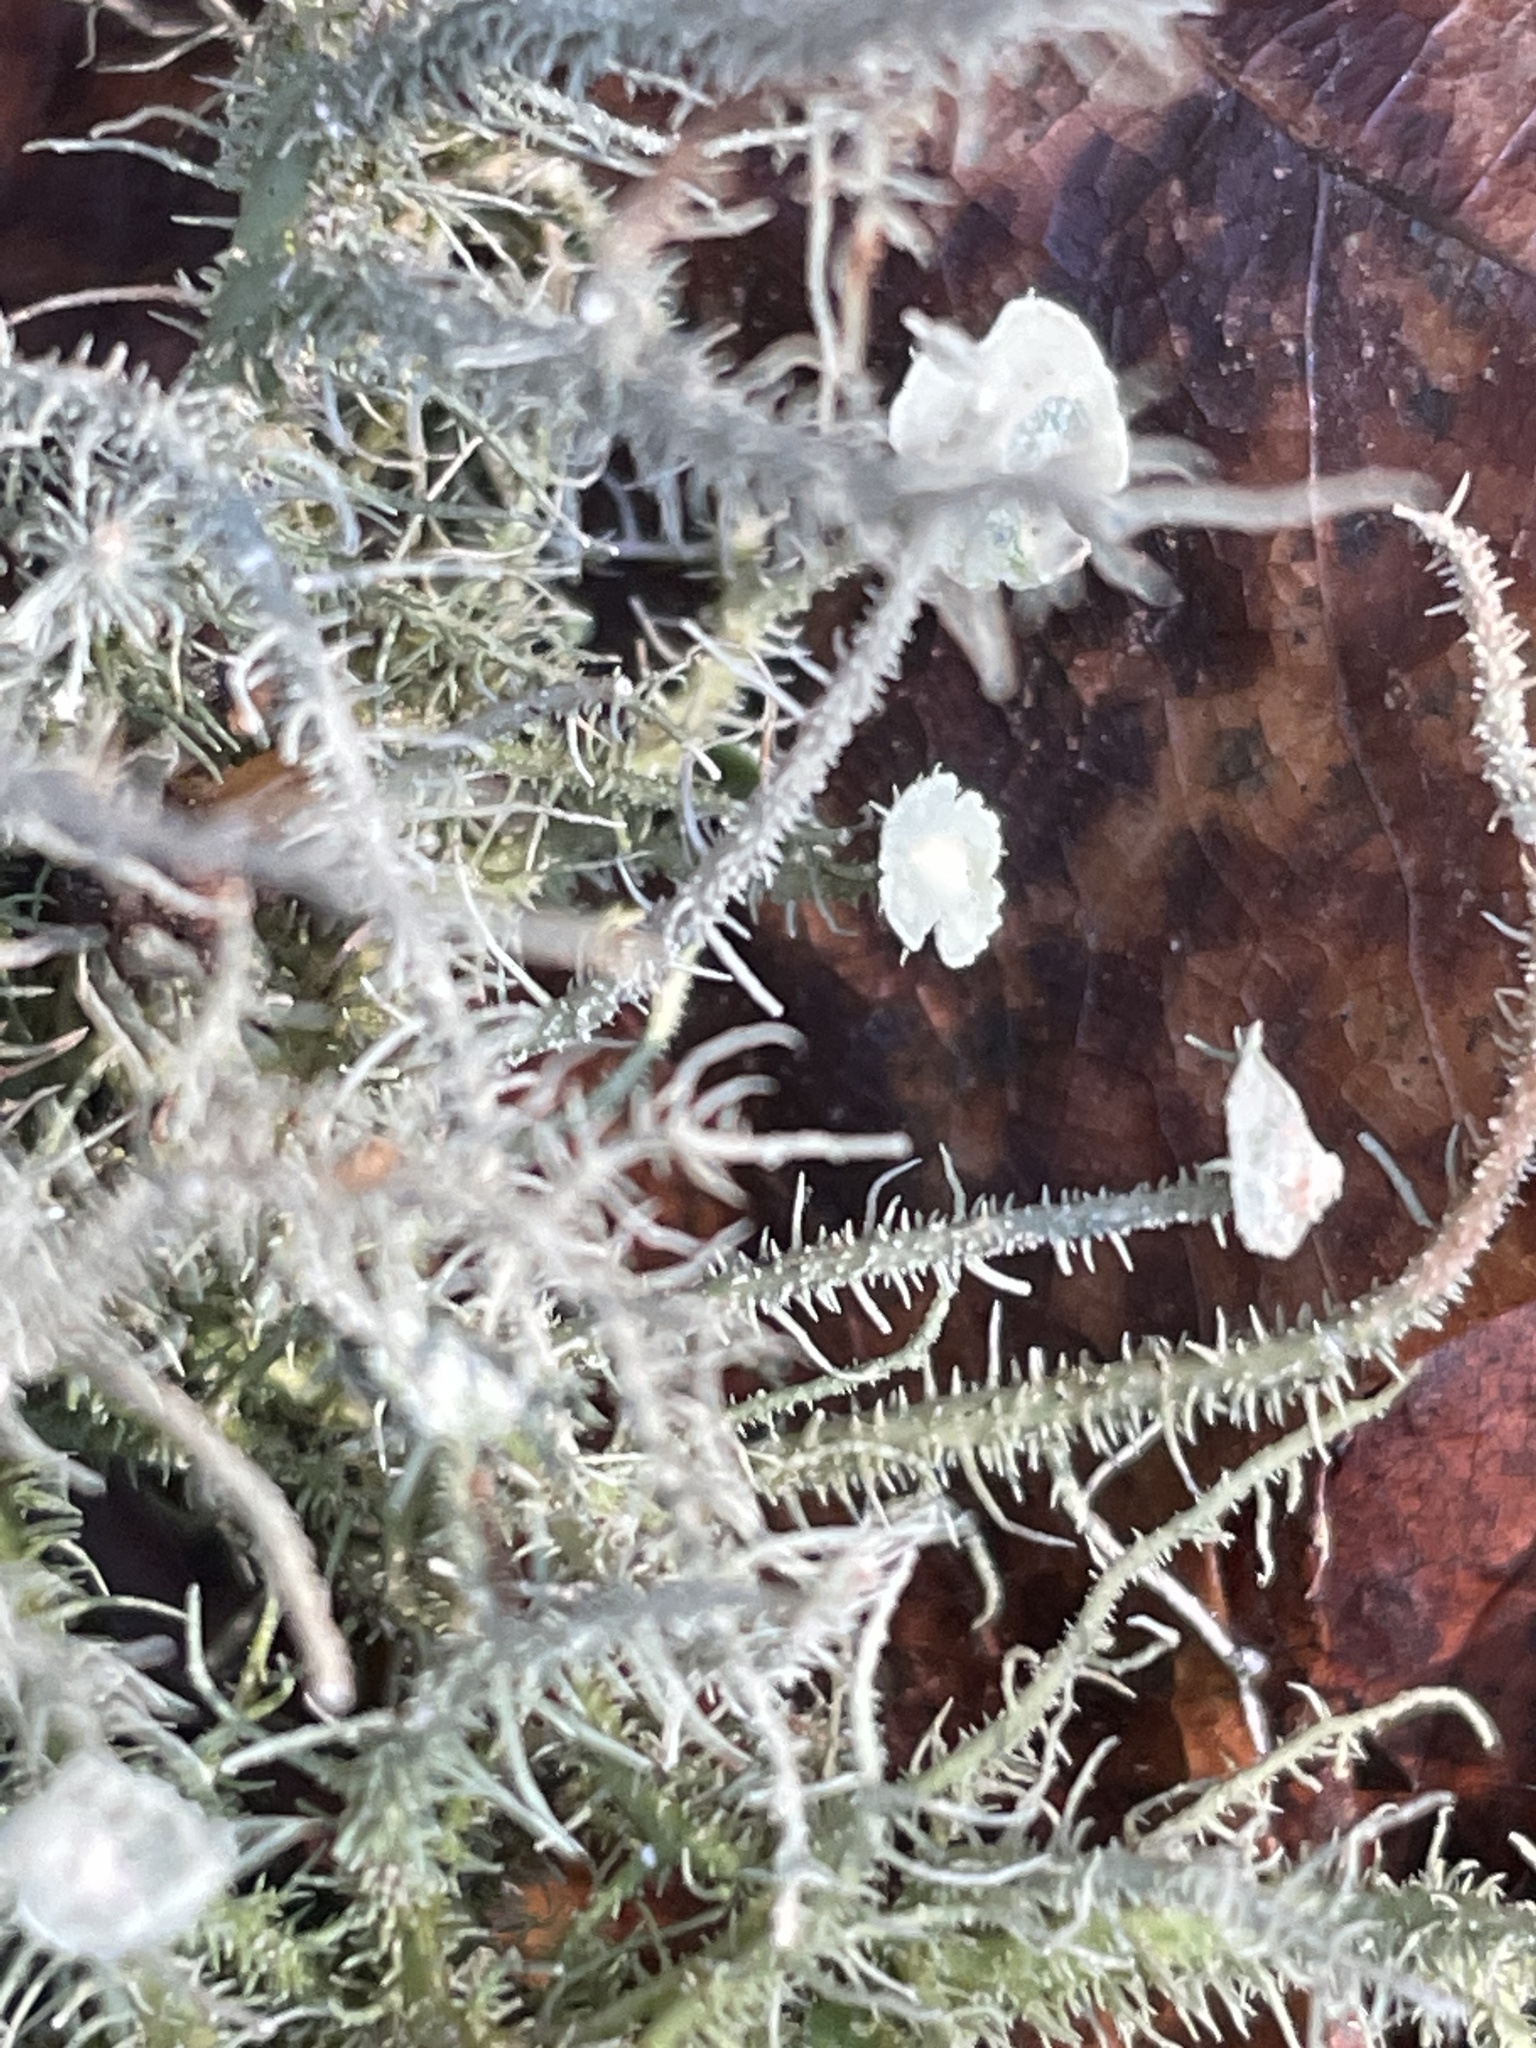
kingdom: Fungi
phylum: Ascomycota
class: Lecanoromycetes
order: Lecanorales
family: Parmeliaceae
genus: Usnea
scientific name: Usnea strigosa
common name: Bushy beard lichen
